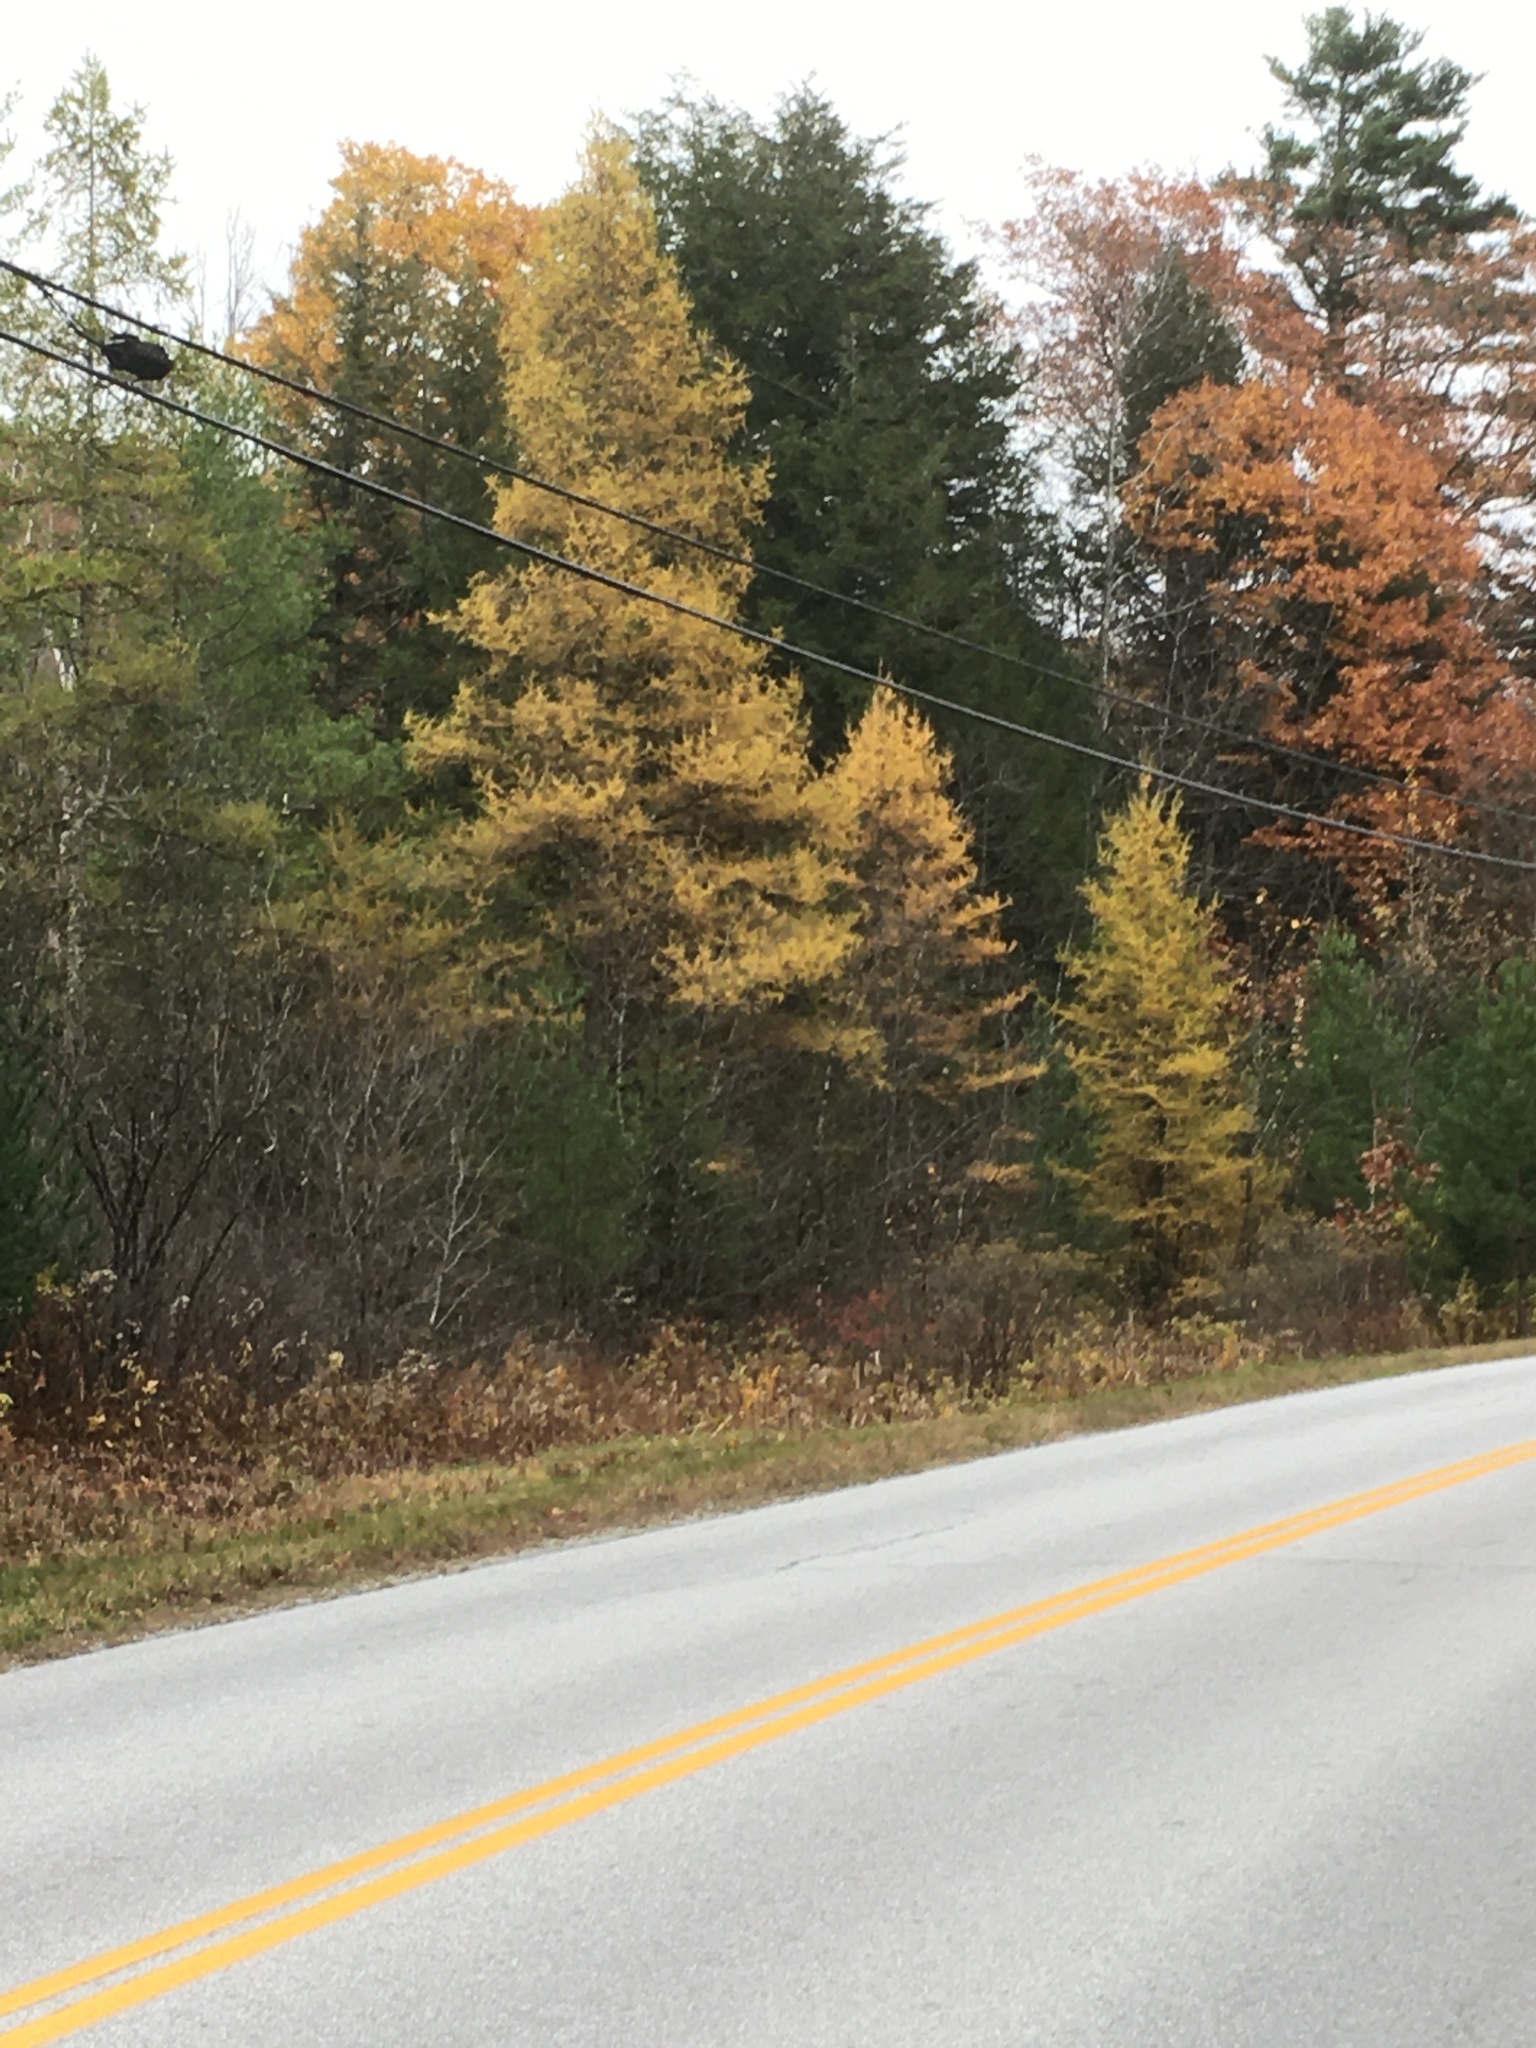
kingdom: Plantae
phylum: Tracheophyta
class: Pinopsida
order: Pinales
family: Pinaceae
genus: Larix
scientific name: Larix laricina
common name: American larch
